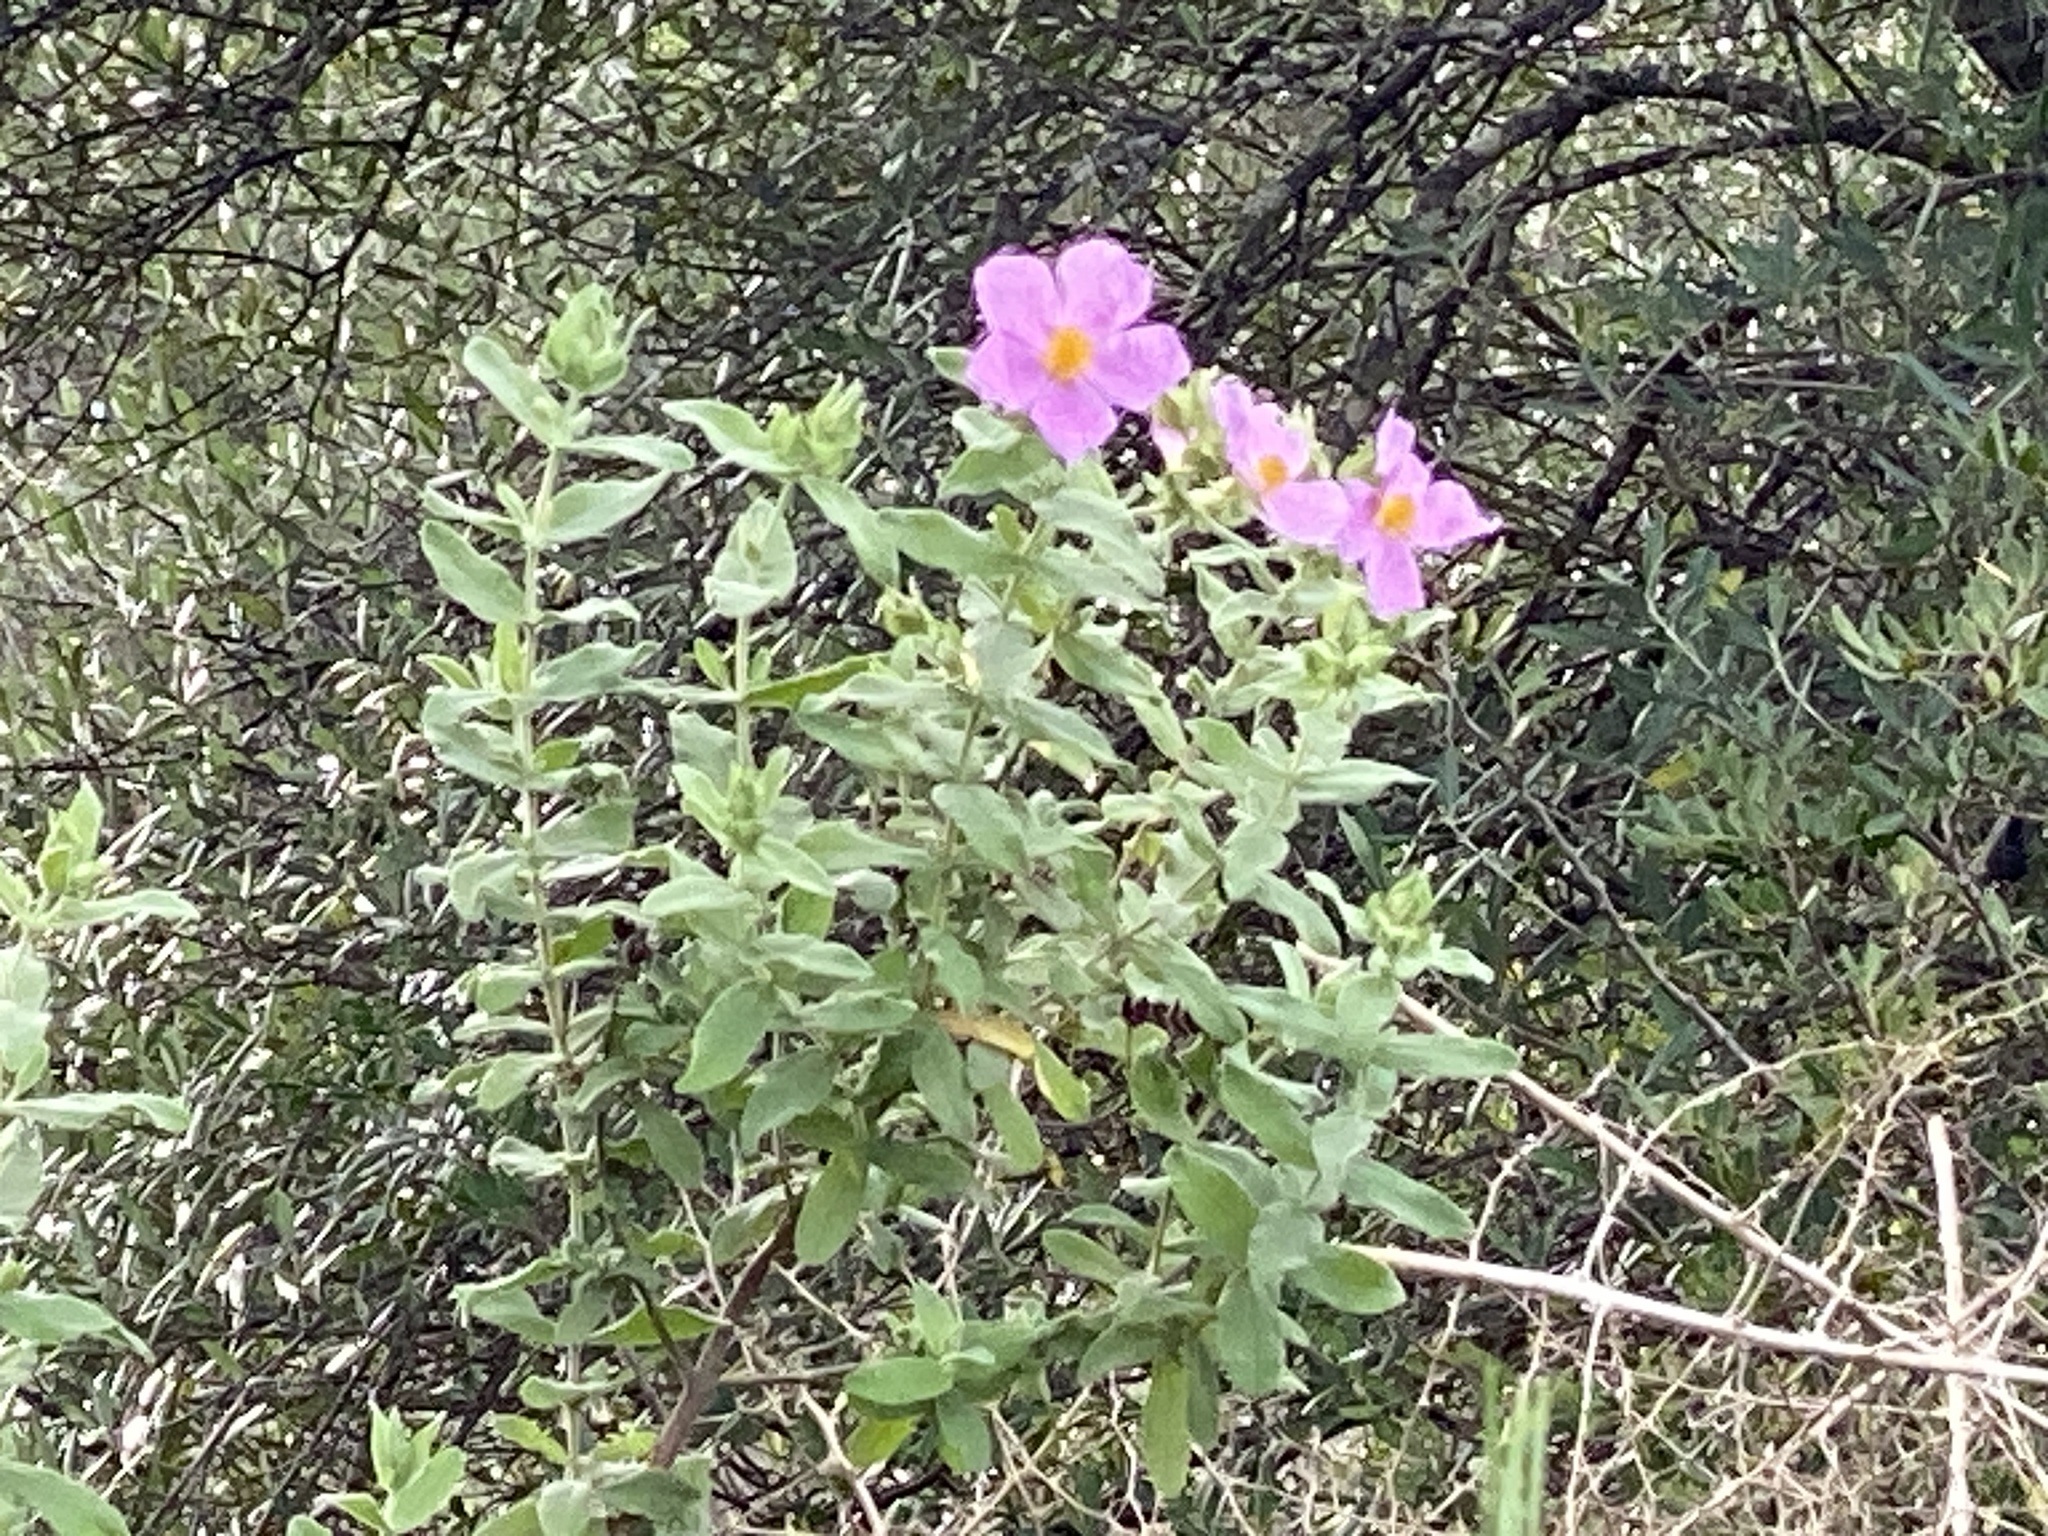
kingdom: Plantae
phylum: Tracheophyta
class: Magnoliopsida
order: Malvales
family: Cistaceae
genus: Cistus
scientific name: Cistus albidus
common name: White-leaf rock-rose
